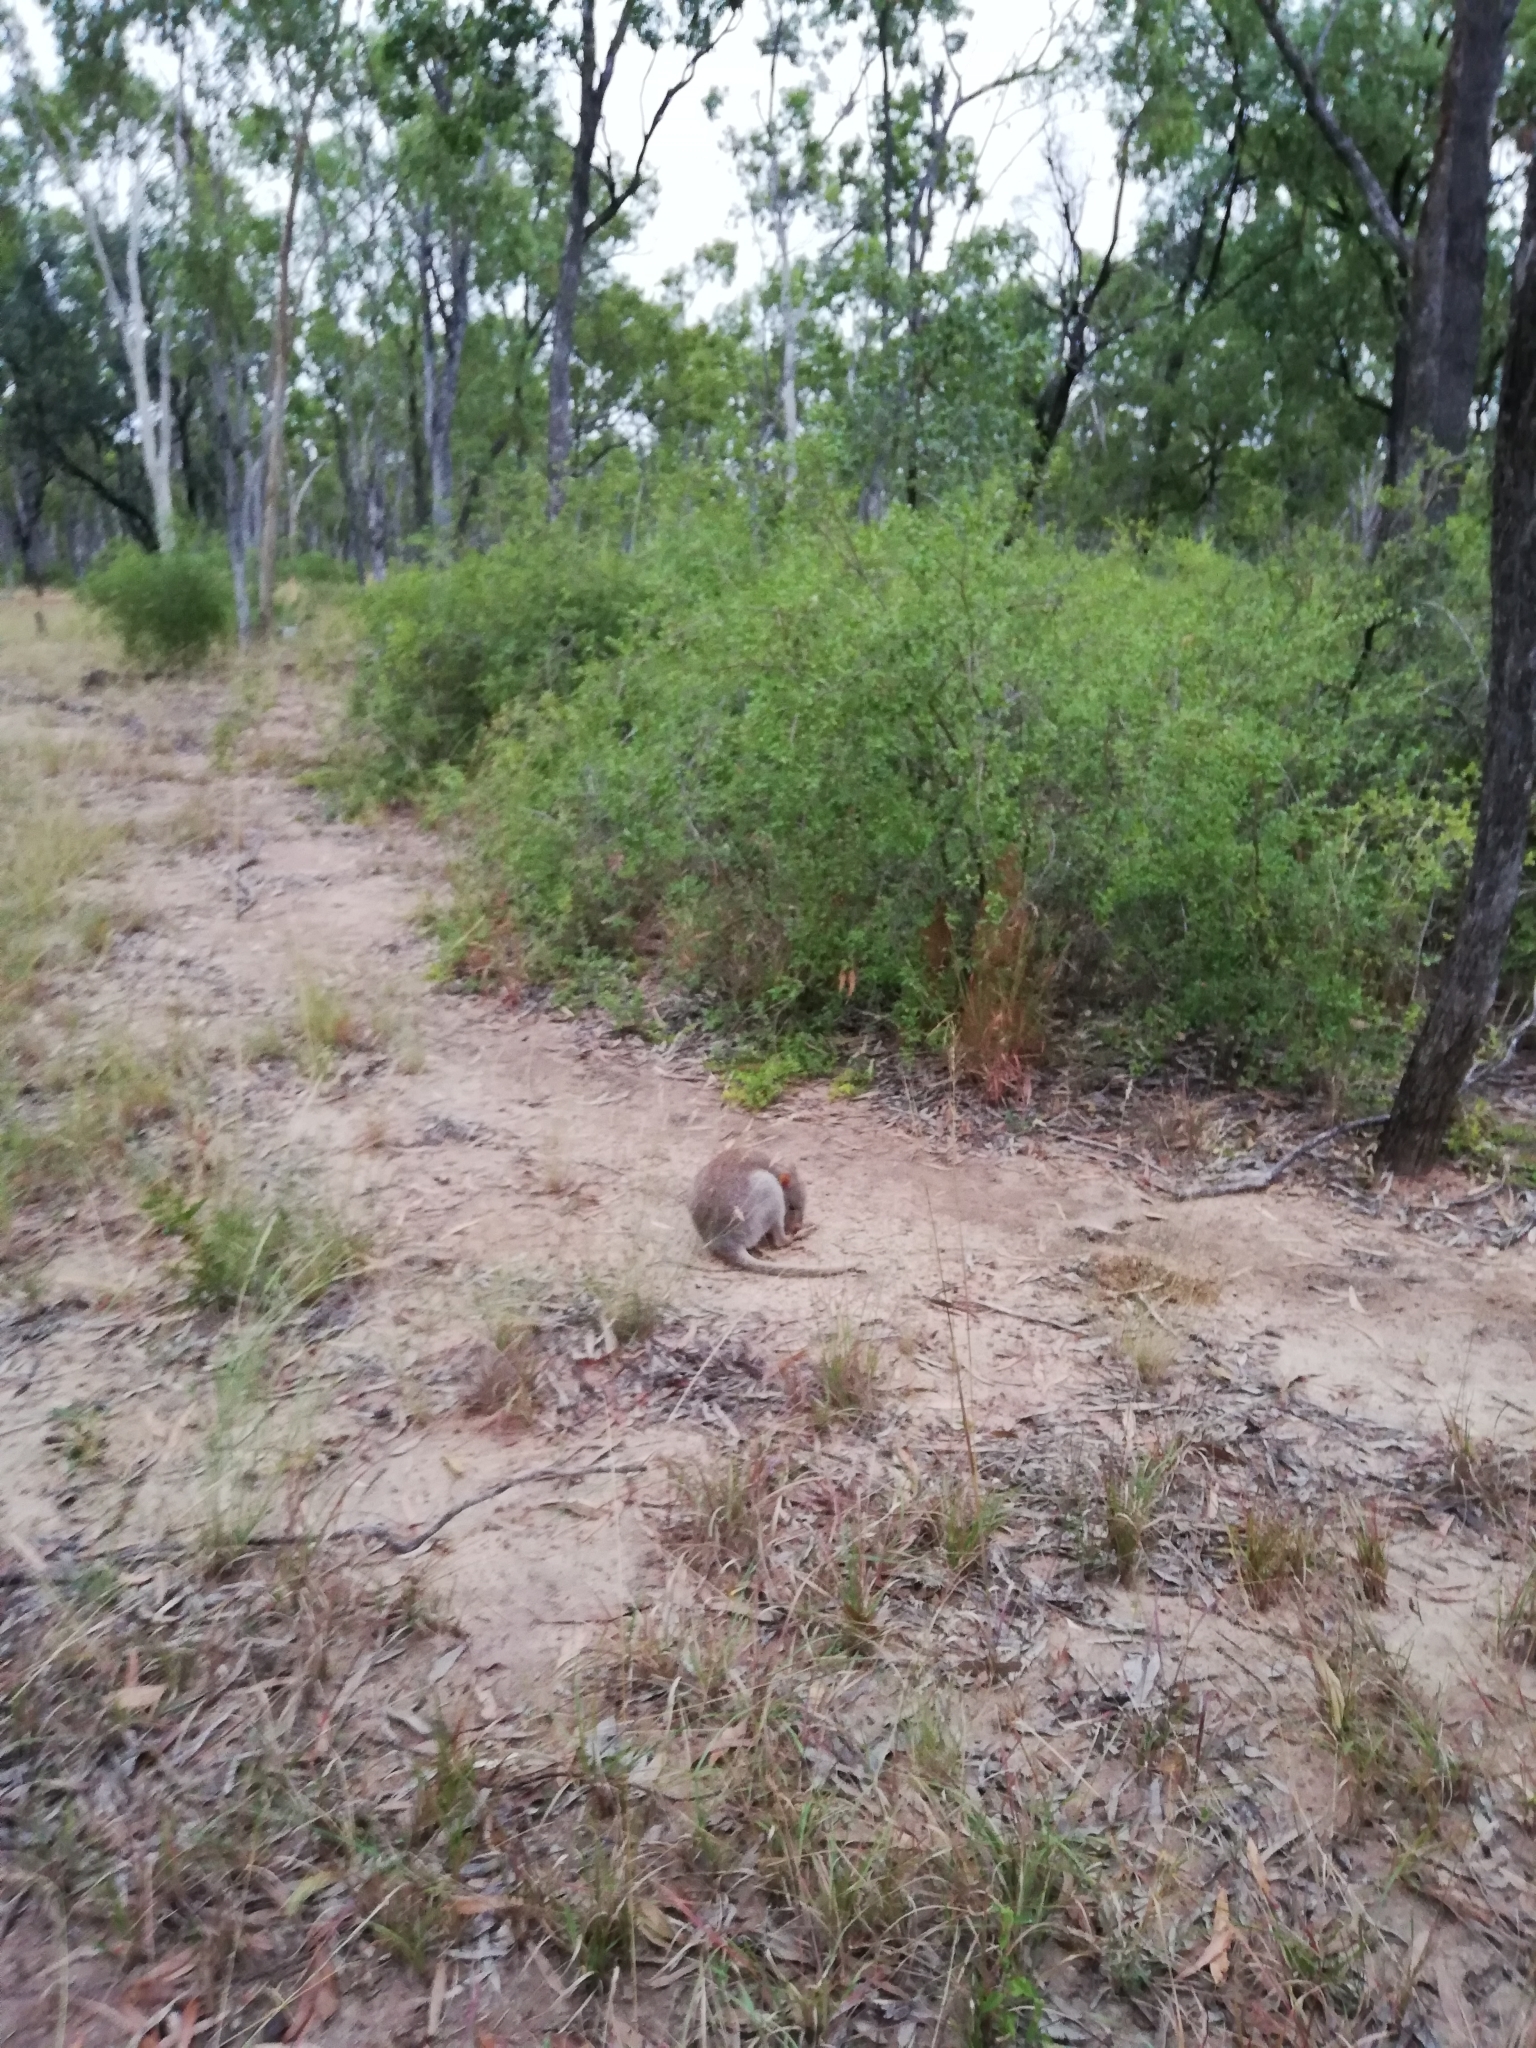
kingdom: Animalia
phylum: Chordata
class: Mammalia
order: Diprotodontia
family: Potoroidae
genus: Aepyprymnus
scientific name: Aepyprymnus rufescens
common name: Rufous rat-kangaroo
